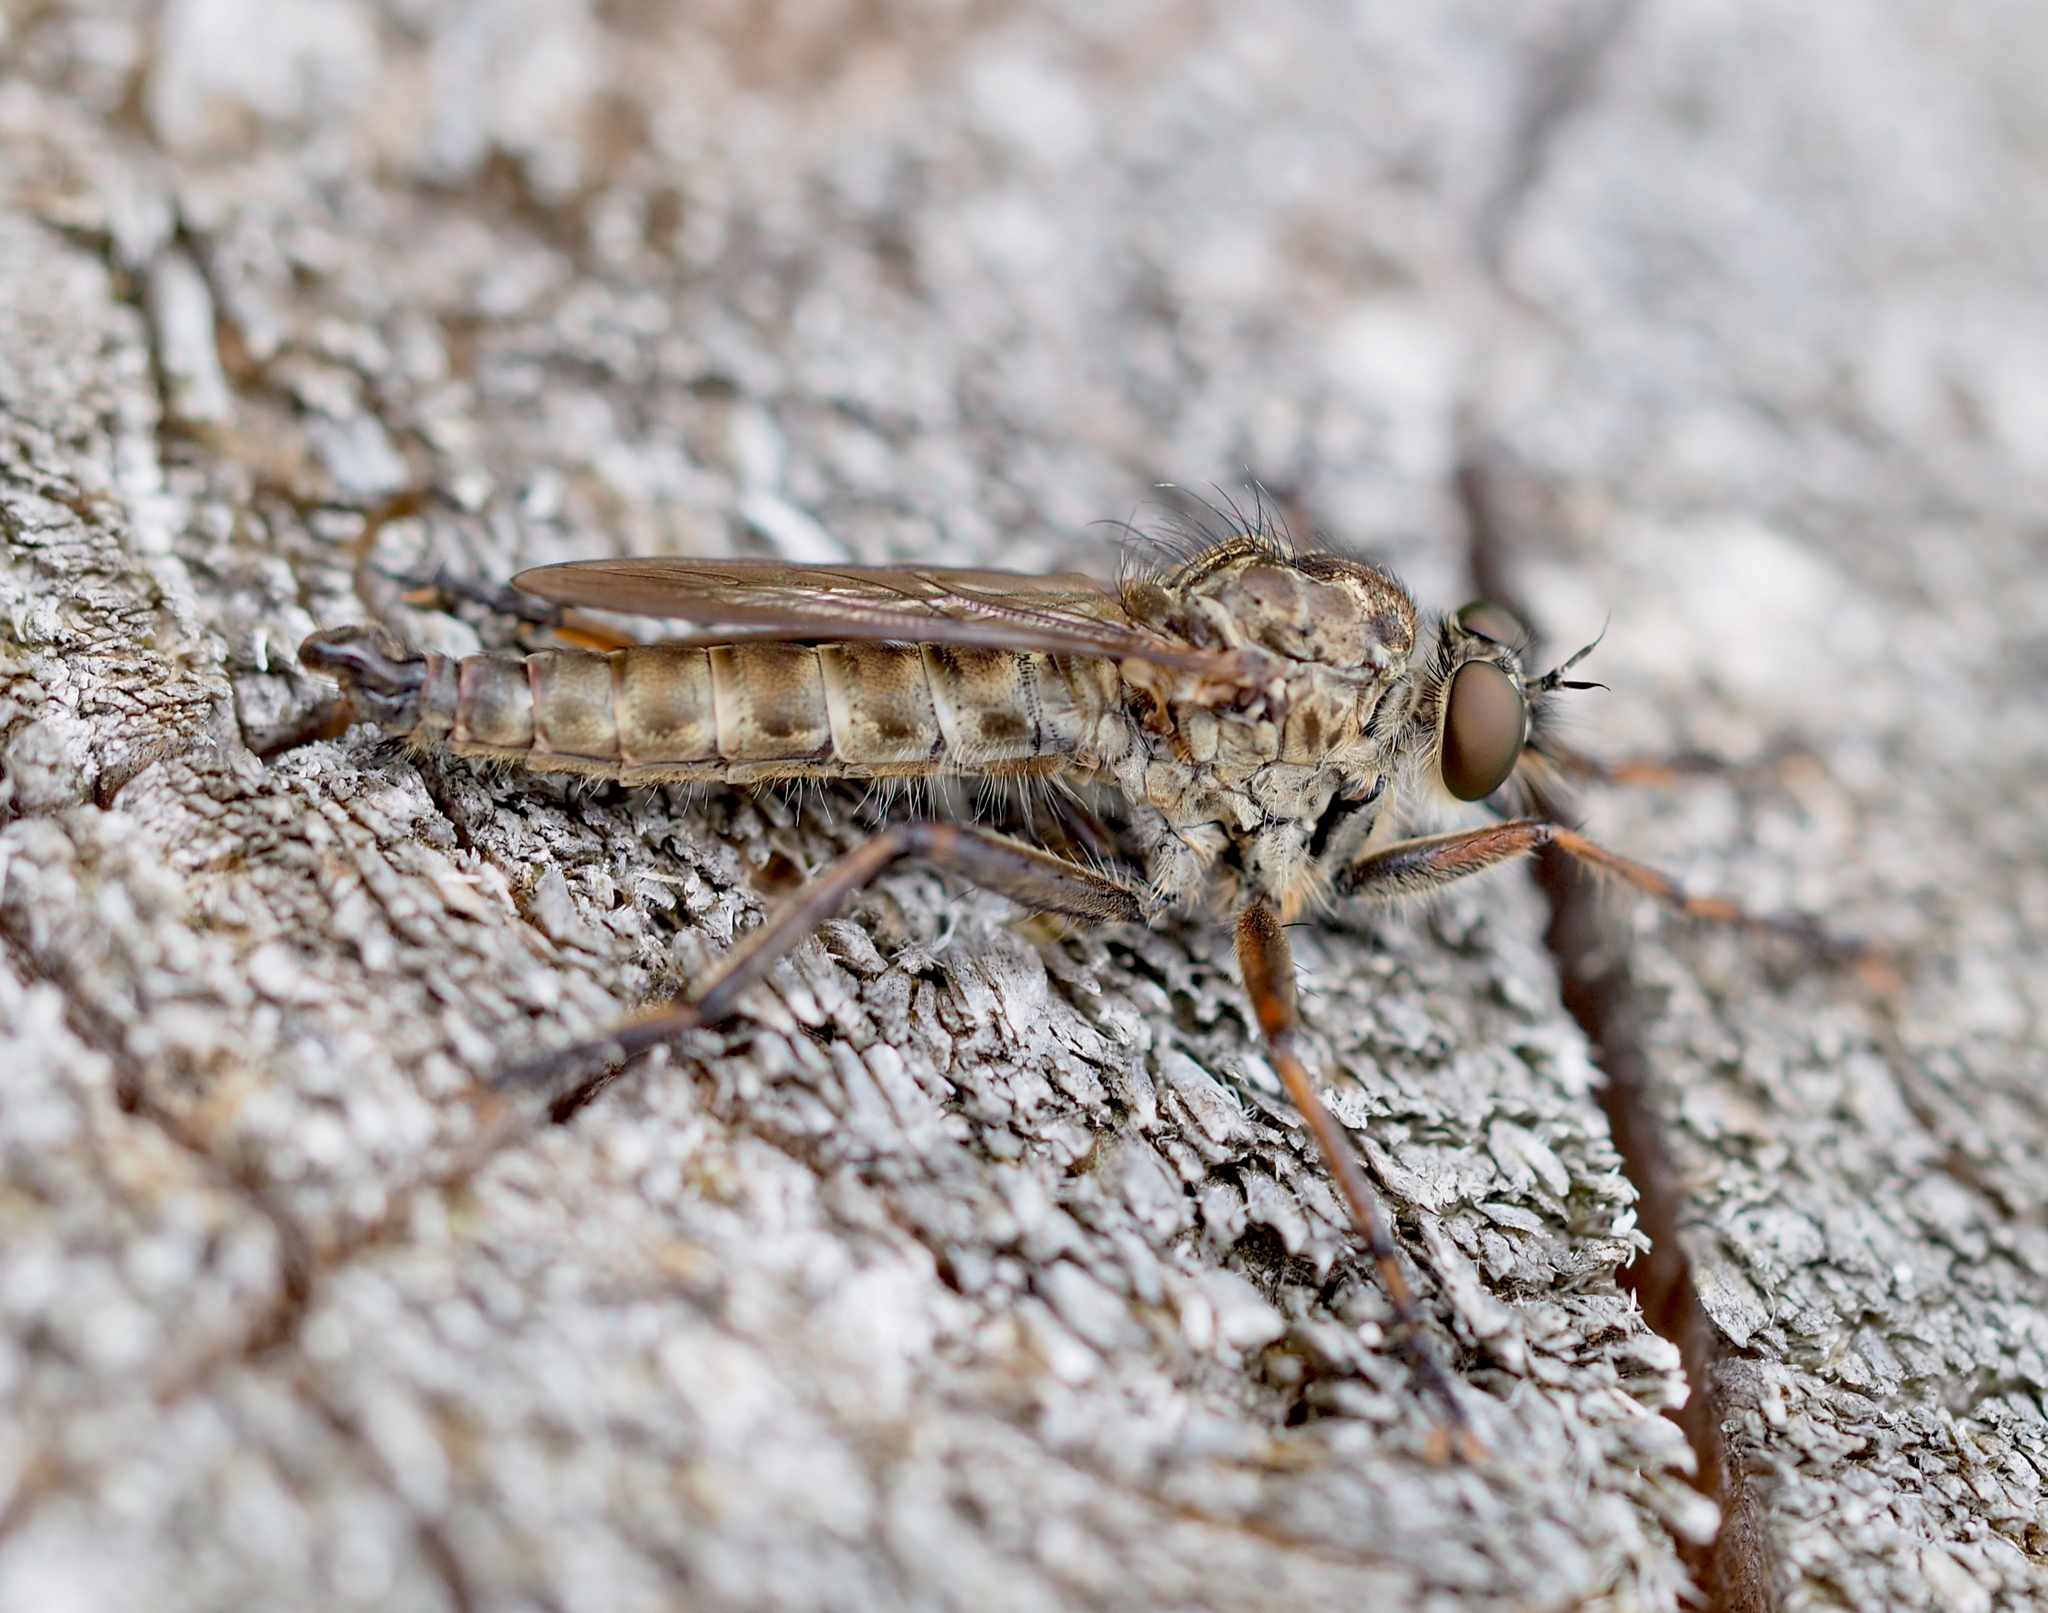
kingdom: Animalia
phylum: Arthropoda
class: Insecta
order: Diptera
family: Asilidae
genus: Machimus
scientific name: Machimus atricapillus
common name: Kite-tailed robberfly
